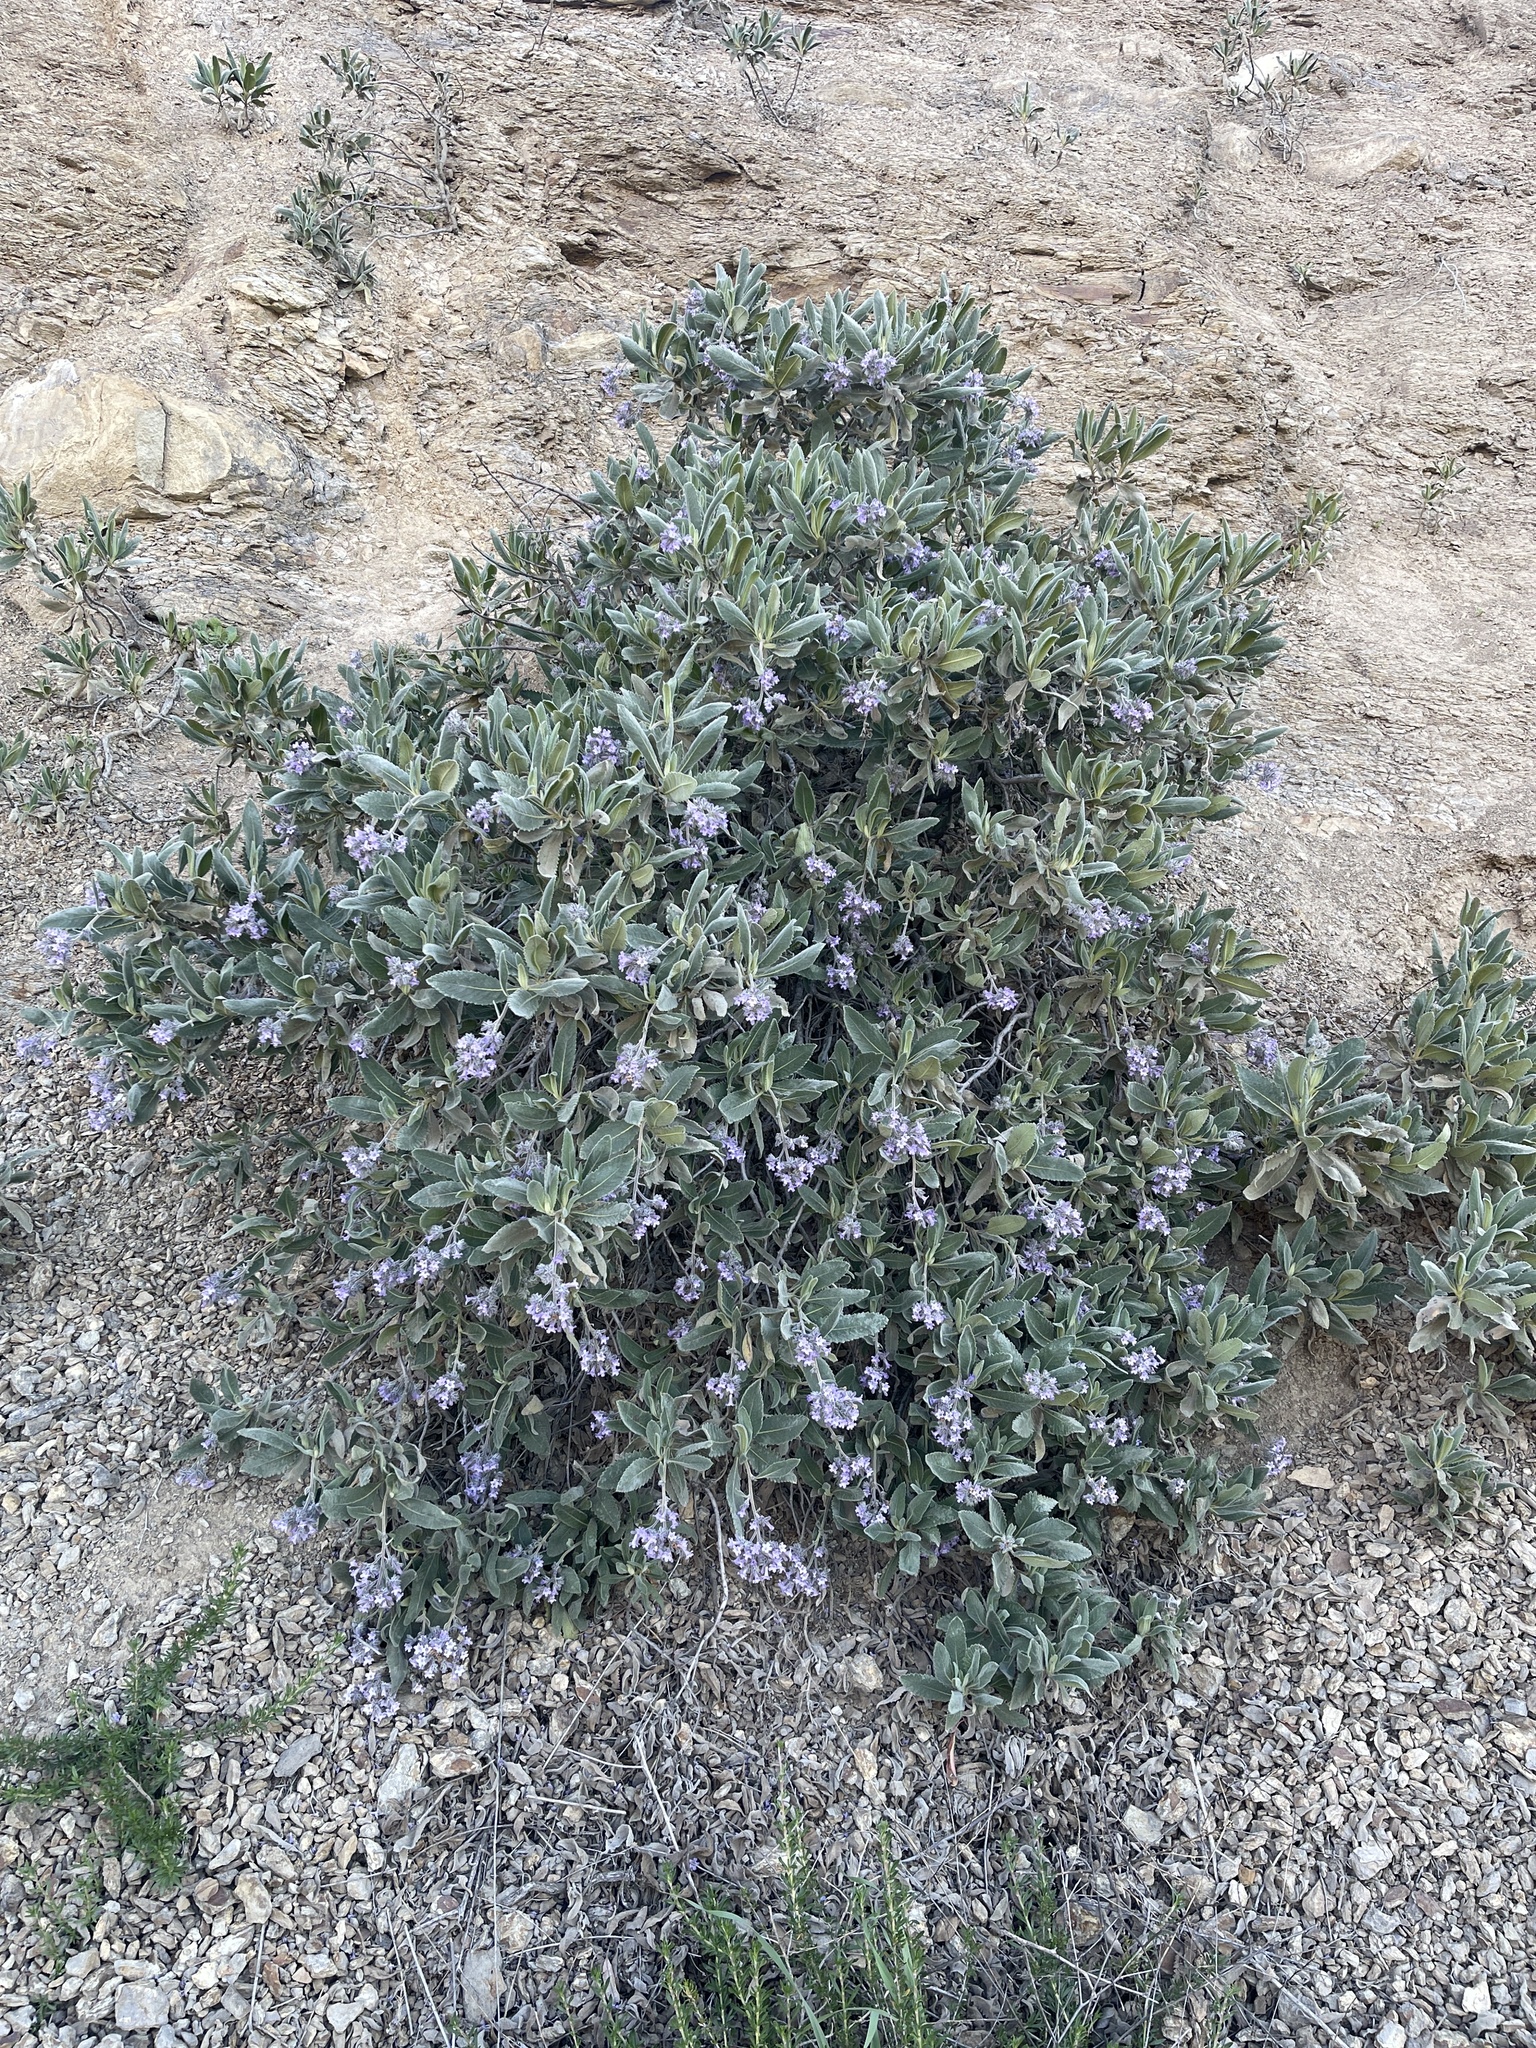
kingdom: Plantae
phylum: Tracheophyta
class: Magnoliopsida
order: Boraginales
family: Namaceae
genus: Eriodictyon
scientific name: Eriodictyon crassifolium
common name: Thick-leaf yerba-santa
